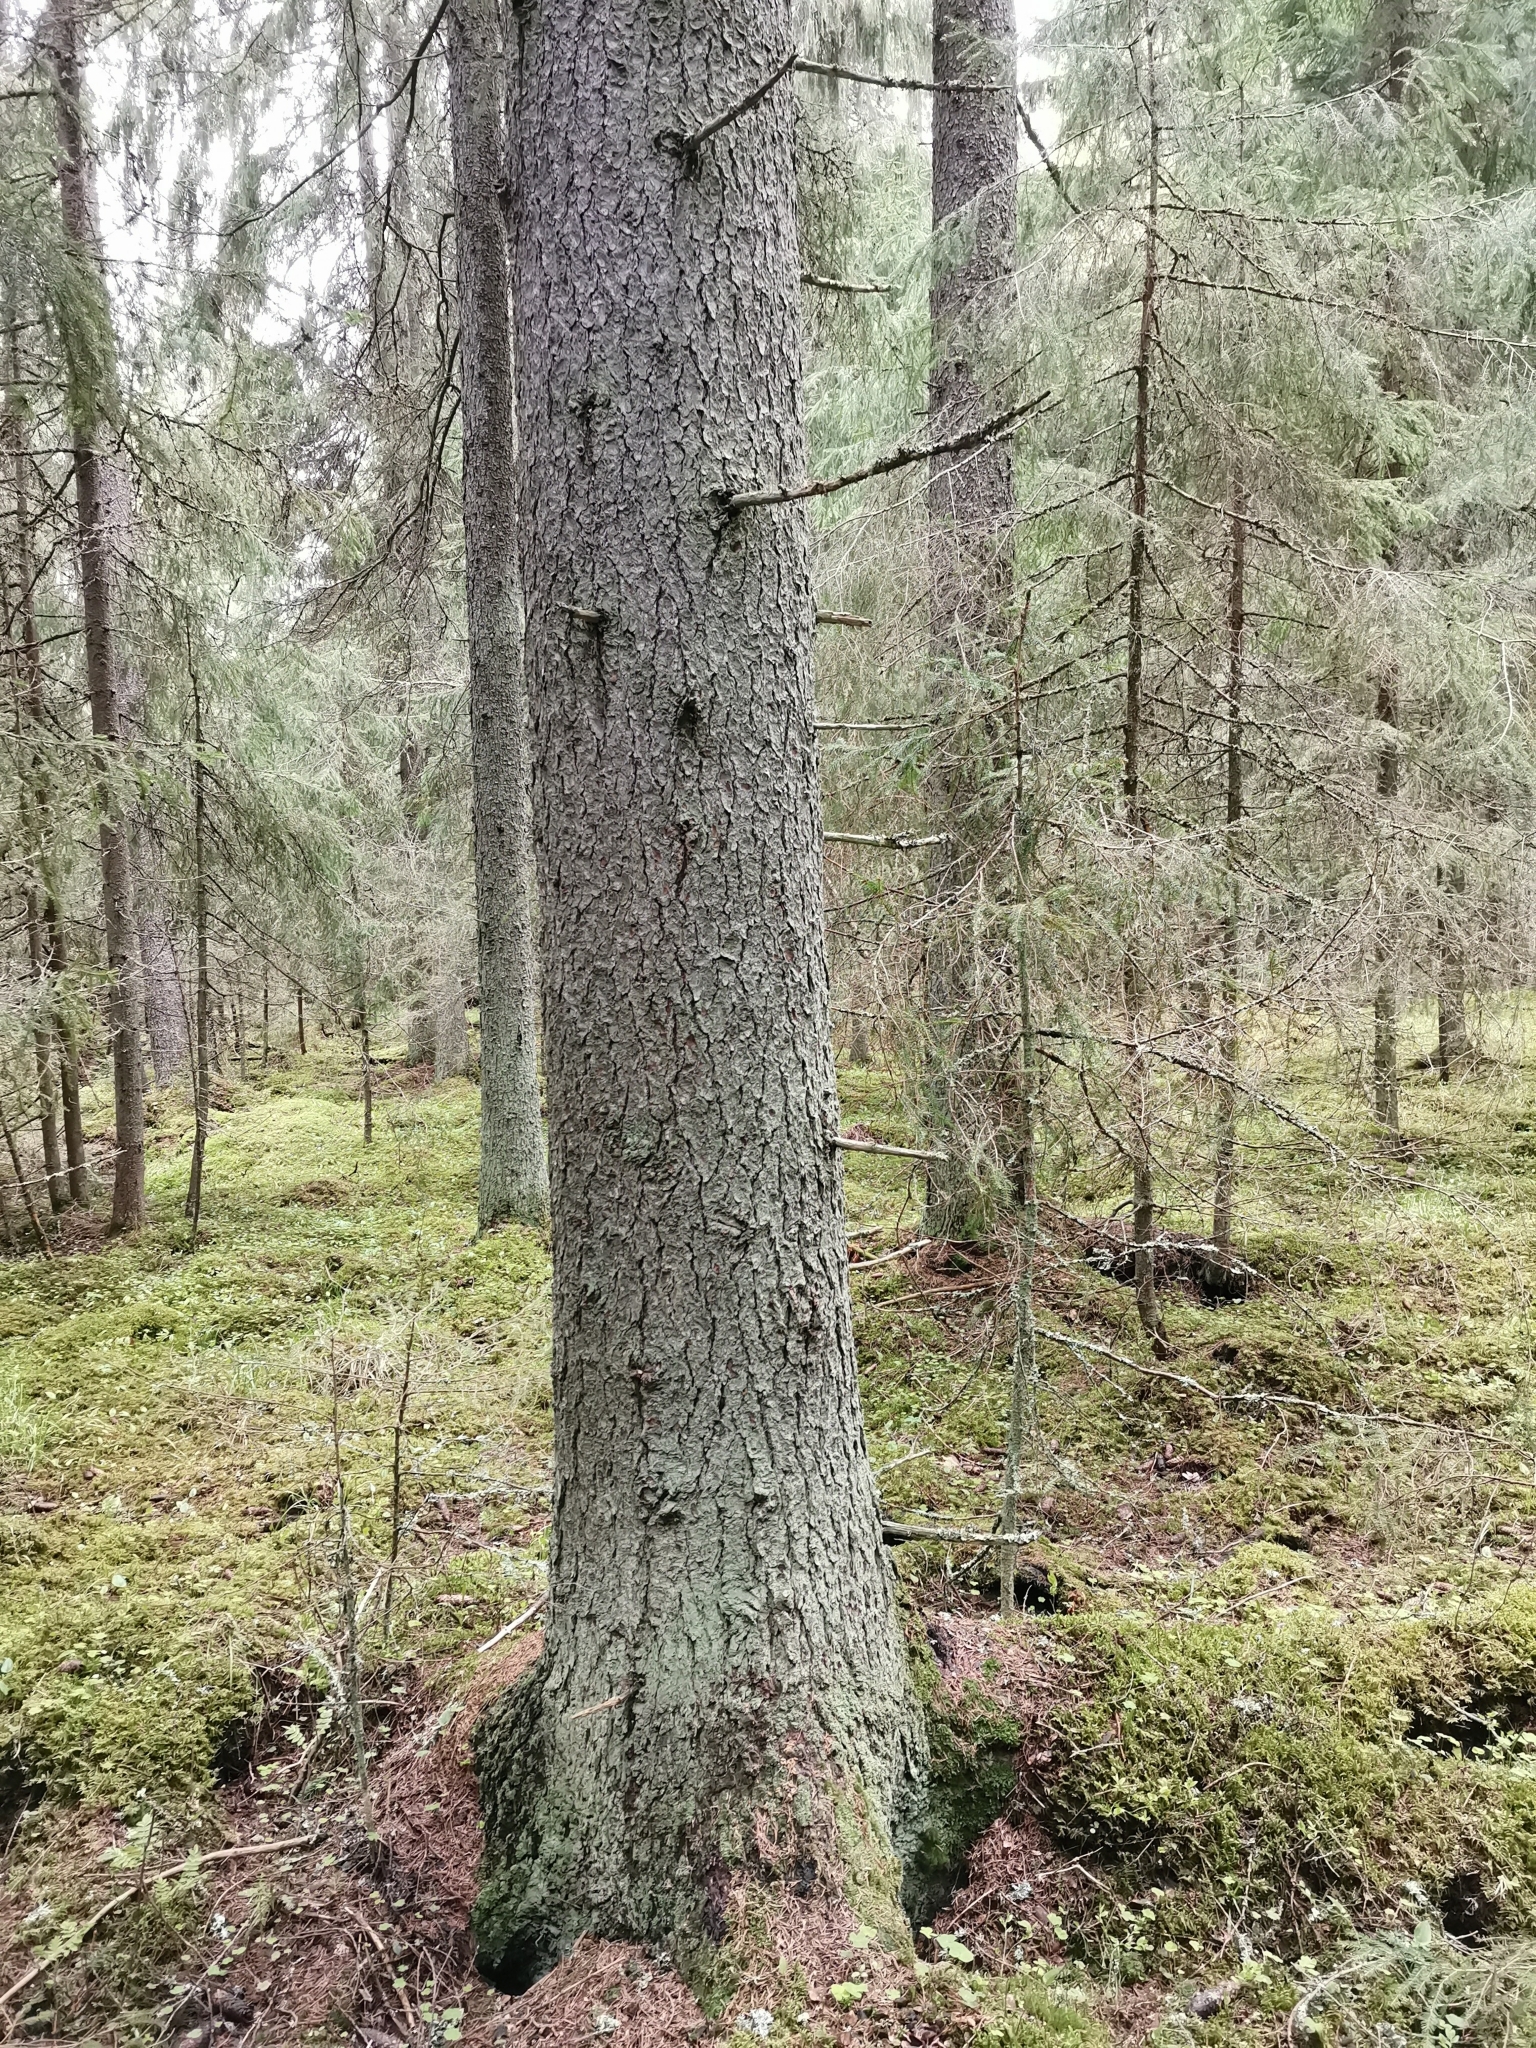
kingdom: Animalia
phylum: Chordata
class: Mammalia
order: Rodentia
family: Sciuridae
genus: Pteromys
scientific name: Pteromys volans
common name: Siberian flying squirrel
